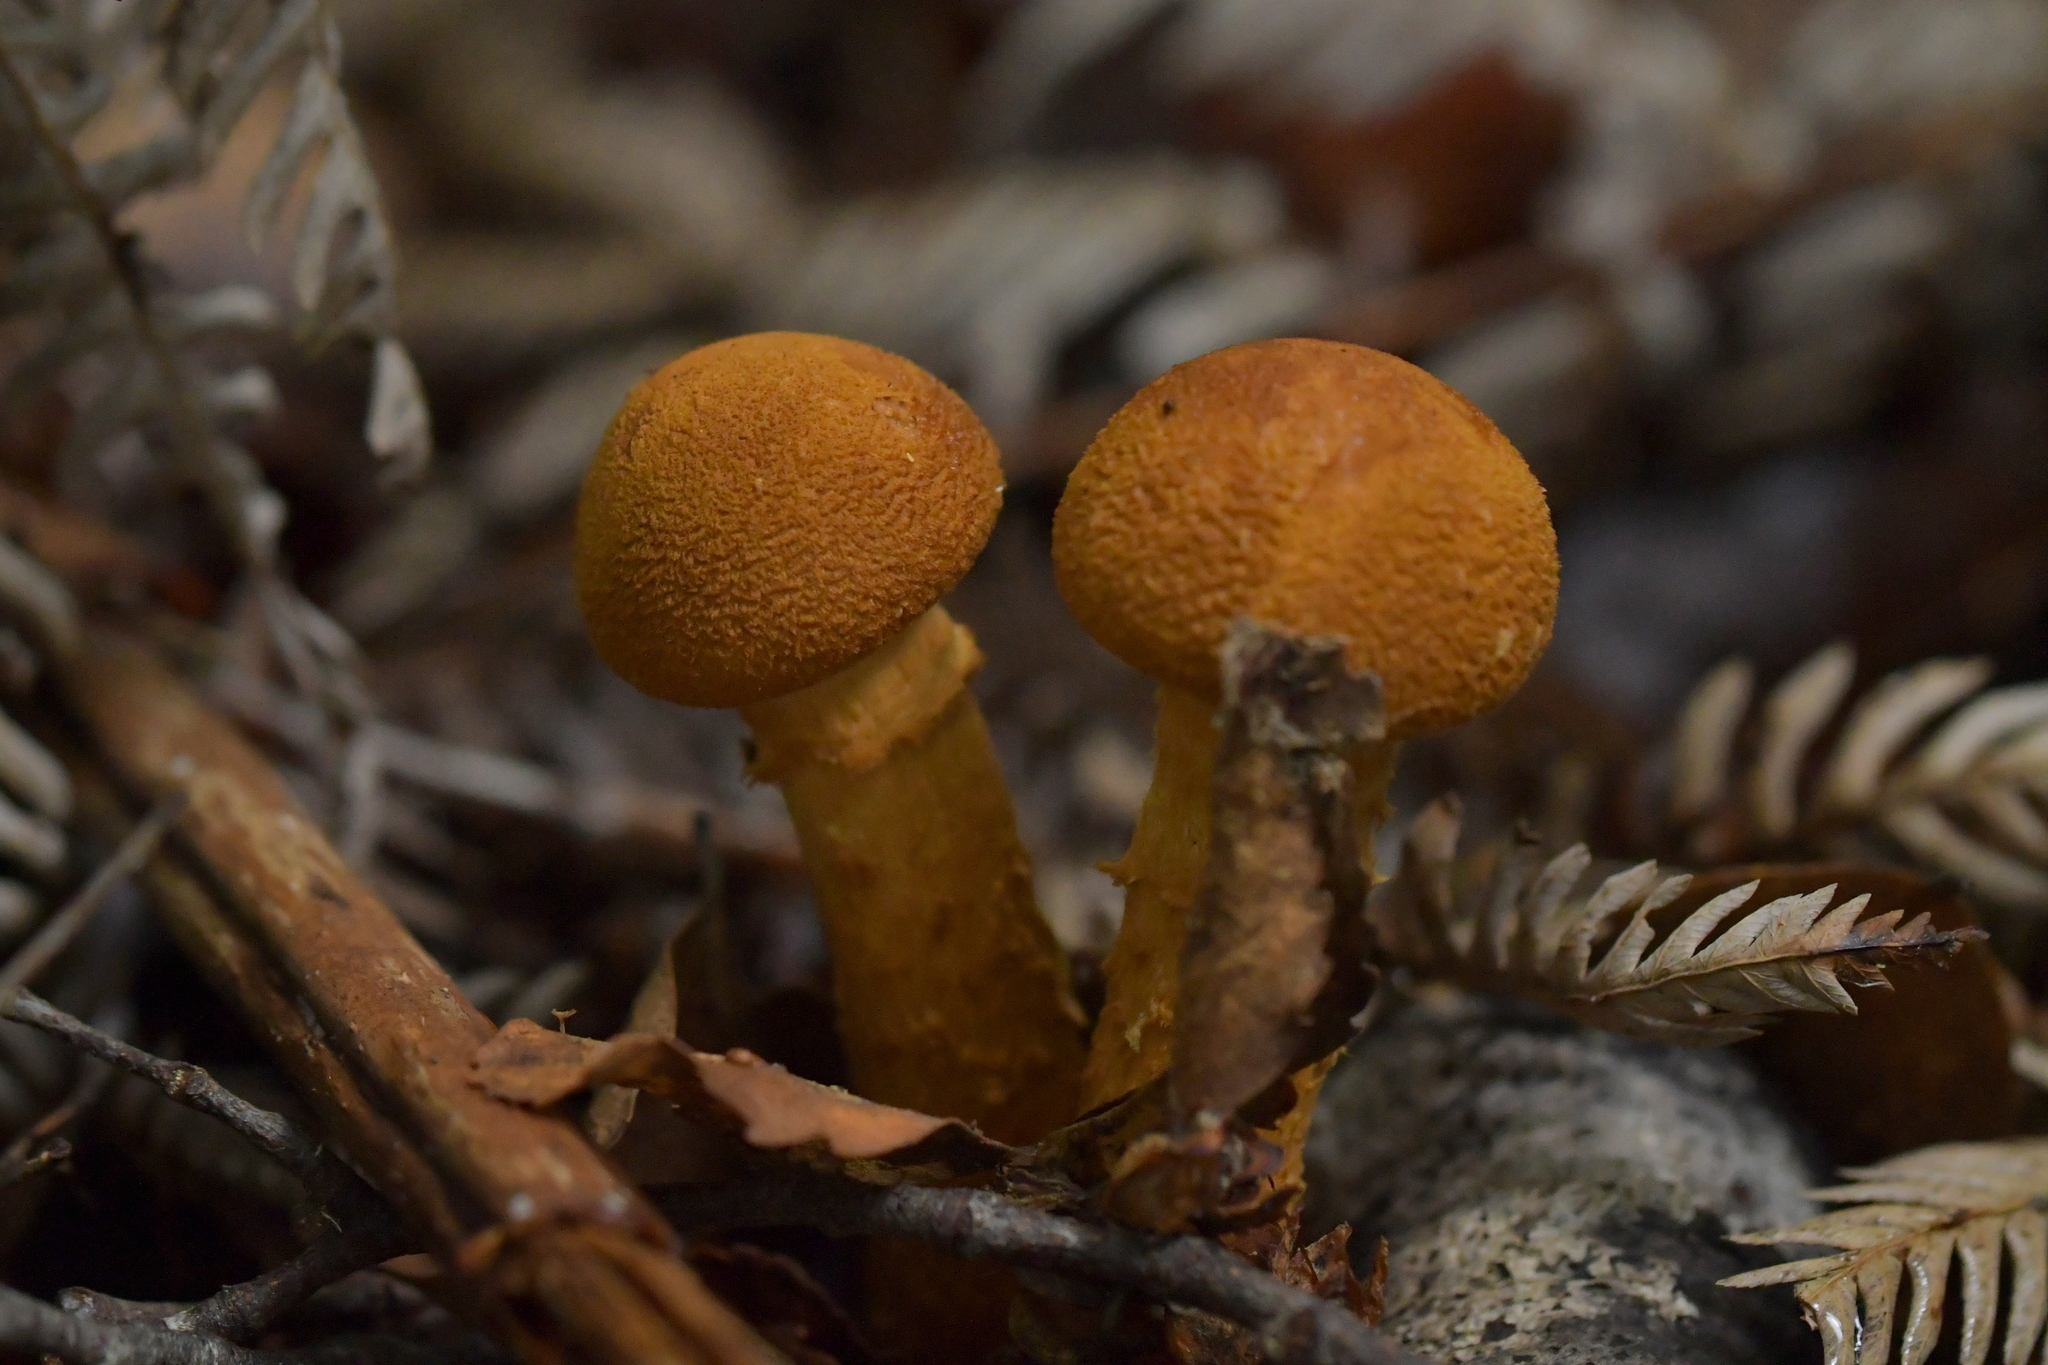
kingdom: Fungi
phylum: Basidiomycota
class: Agaricomycetes
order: Agaricales
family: Cortinariaceae
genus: Thaxterogaster
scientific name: Thaxterogaster castoreus
